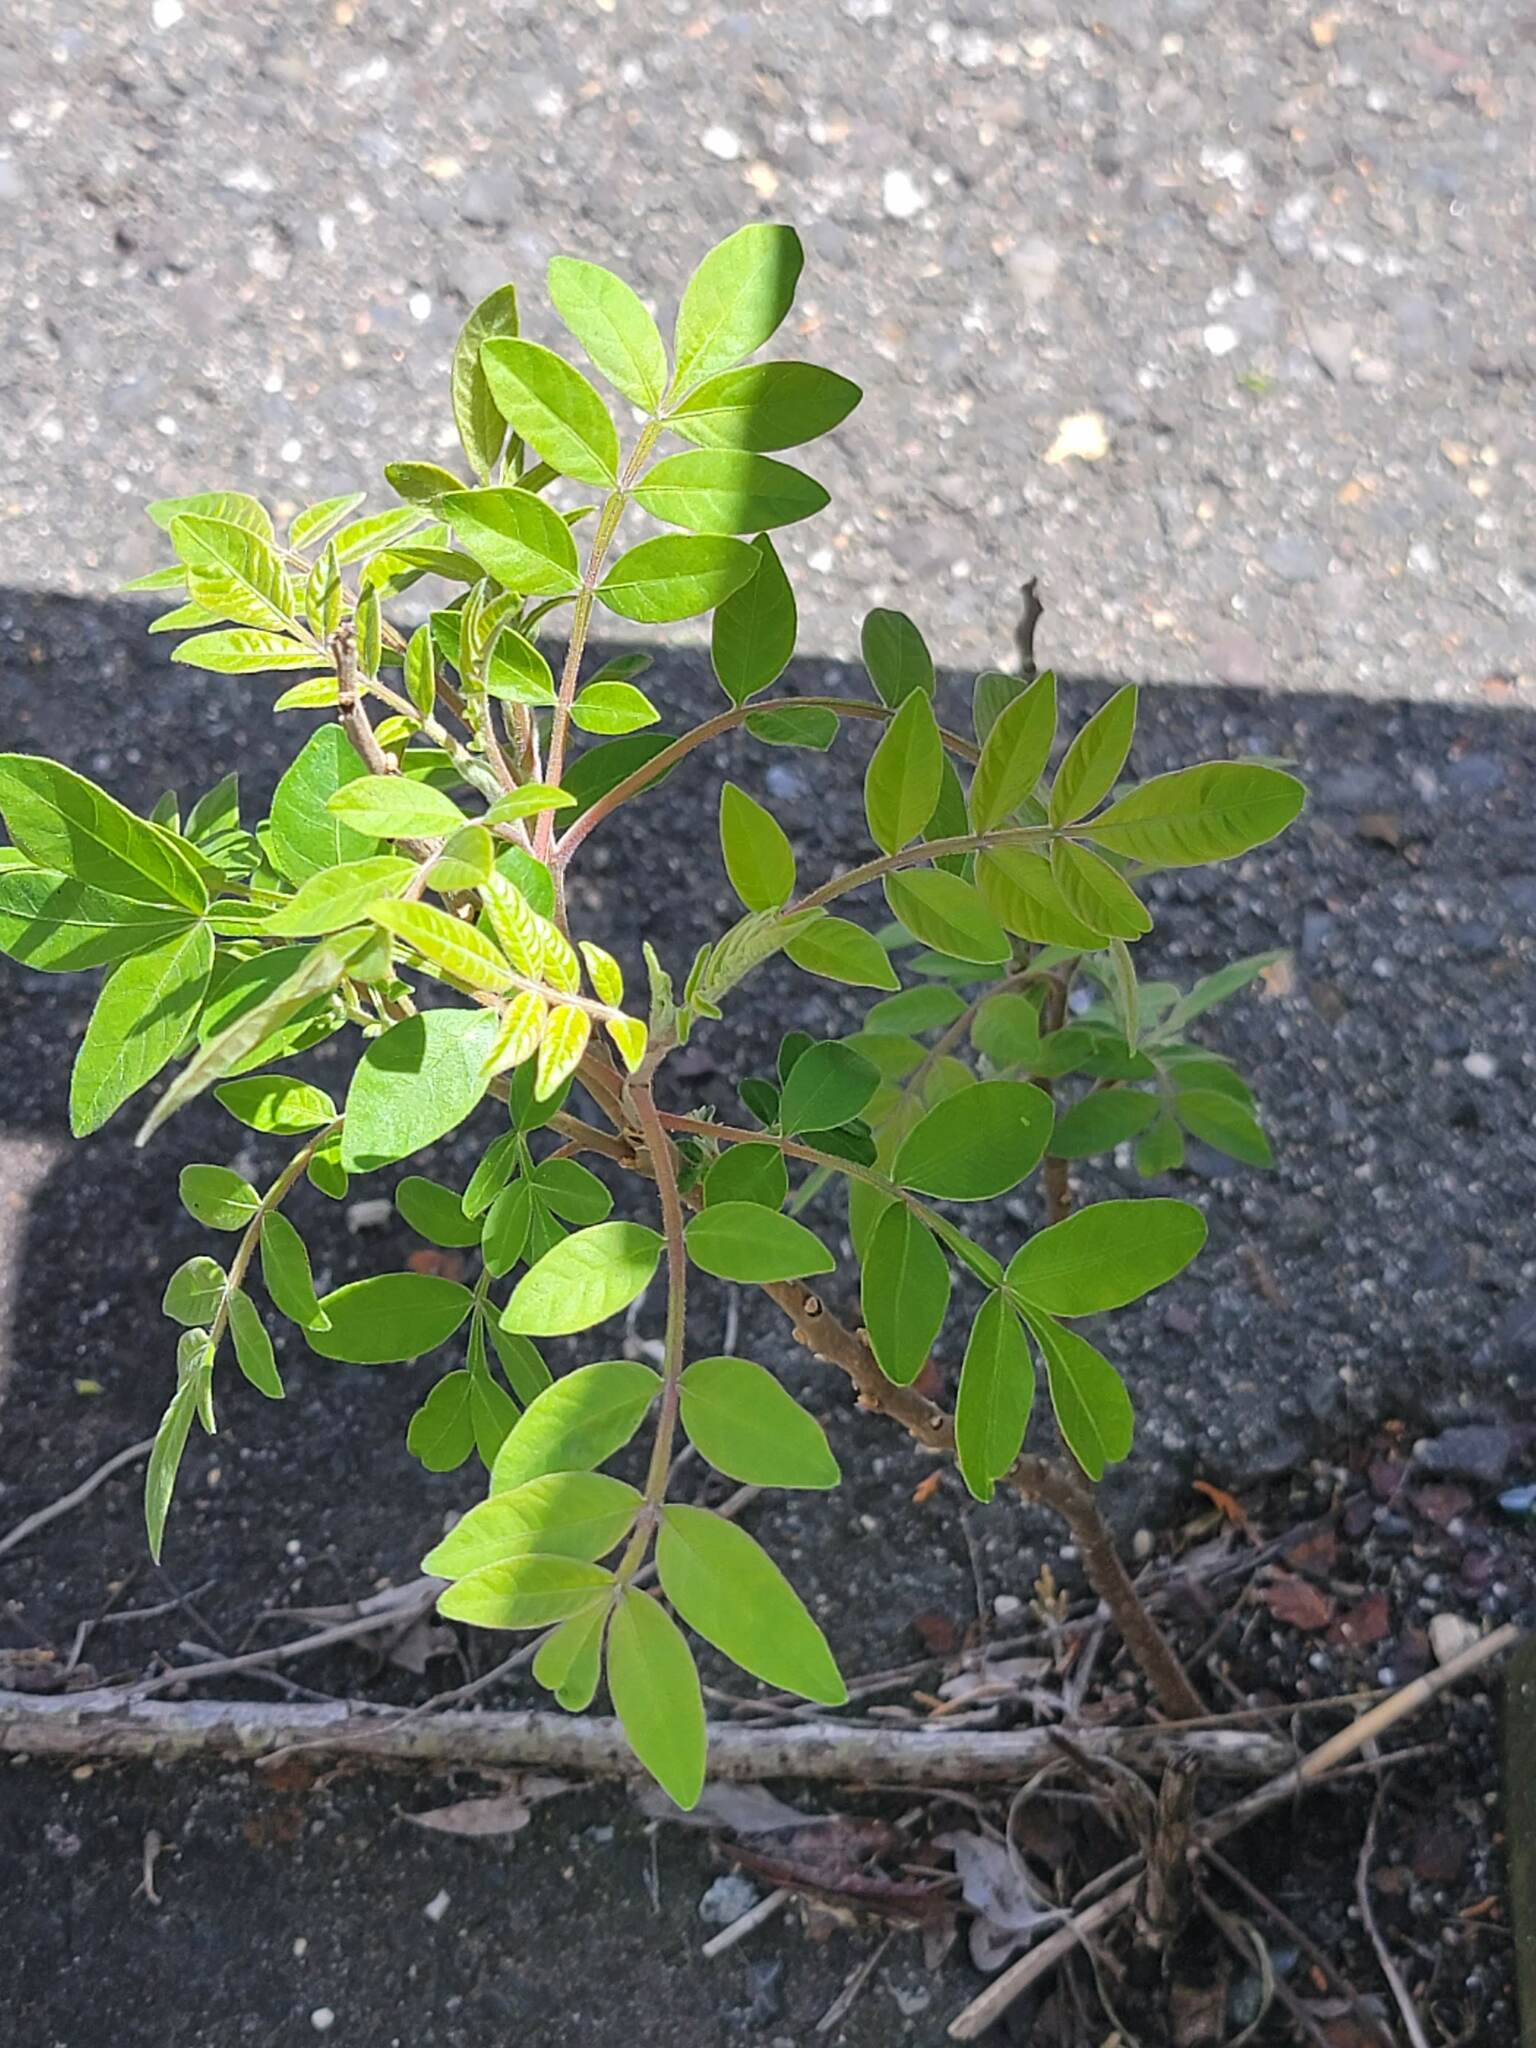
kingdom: Plantae
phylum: Tracheophyta
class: Magnoliopsida
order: Sapindales
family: Anacardiaceae
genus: Rhus
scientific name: Rhus copallina
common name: Shining sumac
